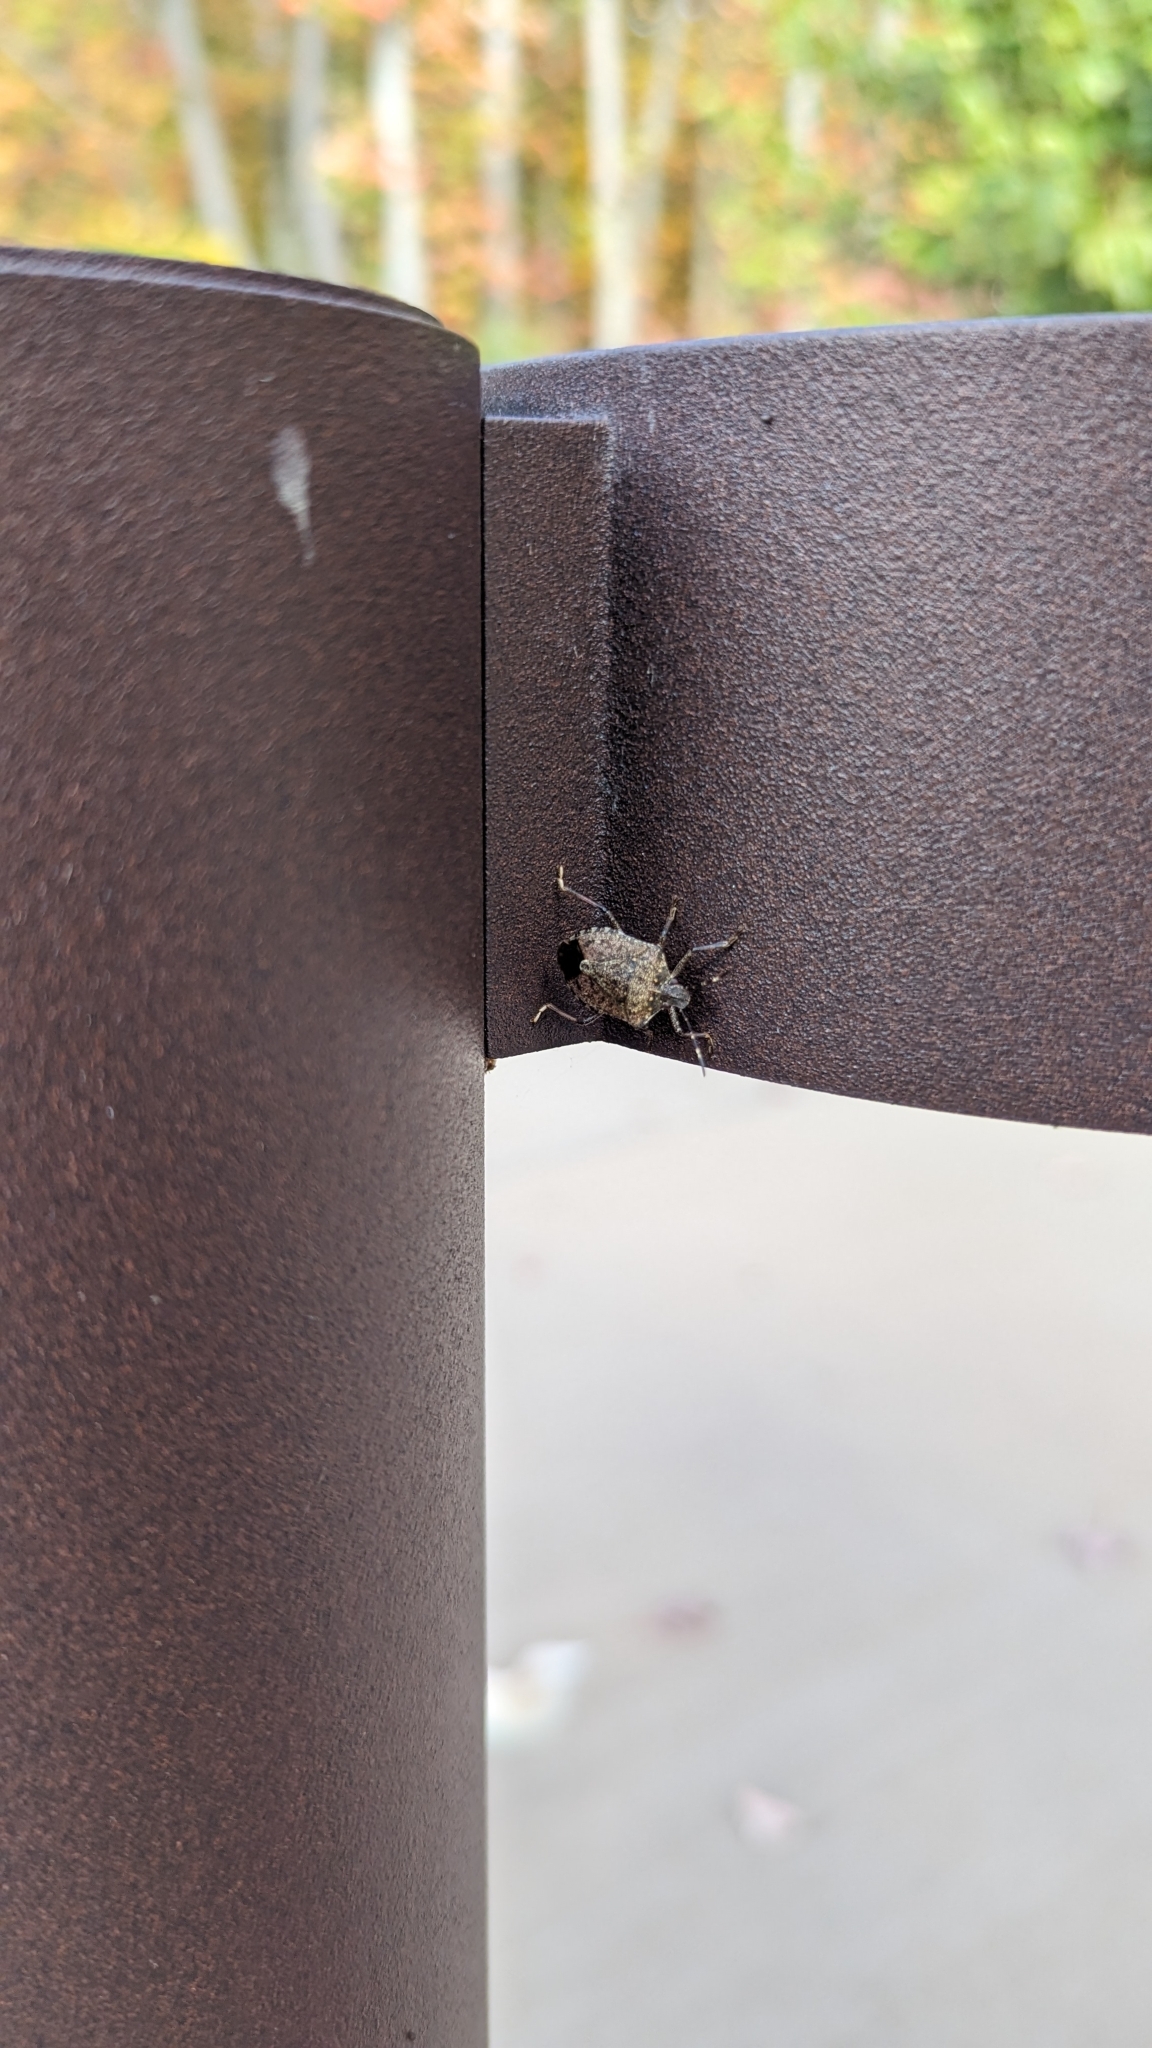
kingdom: Animalia
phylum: Arthropoda
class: Insecta
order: Hemiptera
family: Pentatomidae
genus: Halyomorpha
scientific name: Halyomorpha halys
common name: Brown marmorated stink bug
